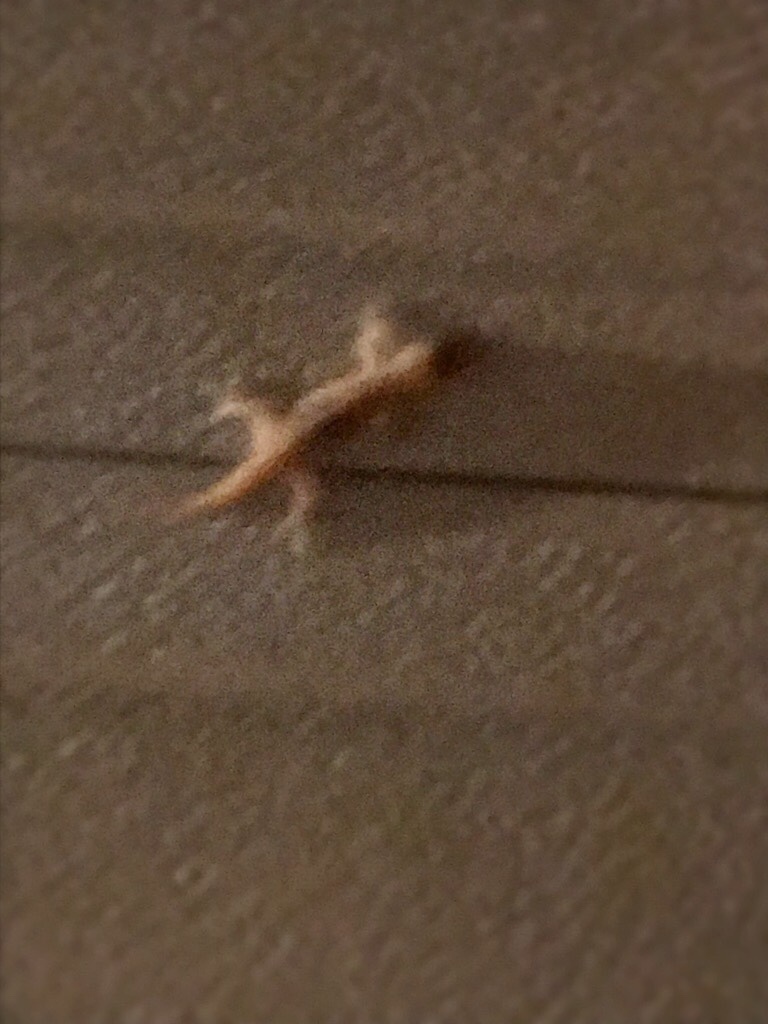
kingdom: Animalia
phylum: Chordata
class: Squamata
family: Gekkonidae
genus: Hemidactylus
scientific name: Hemidactylus turcicus
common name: Turkish gecko
